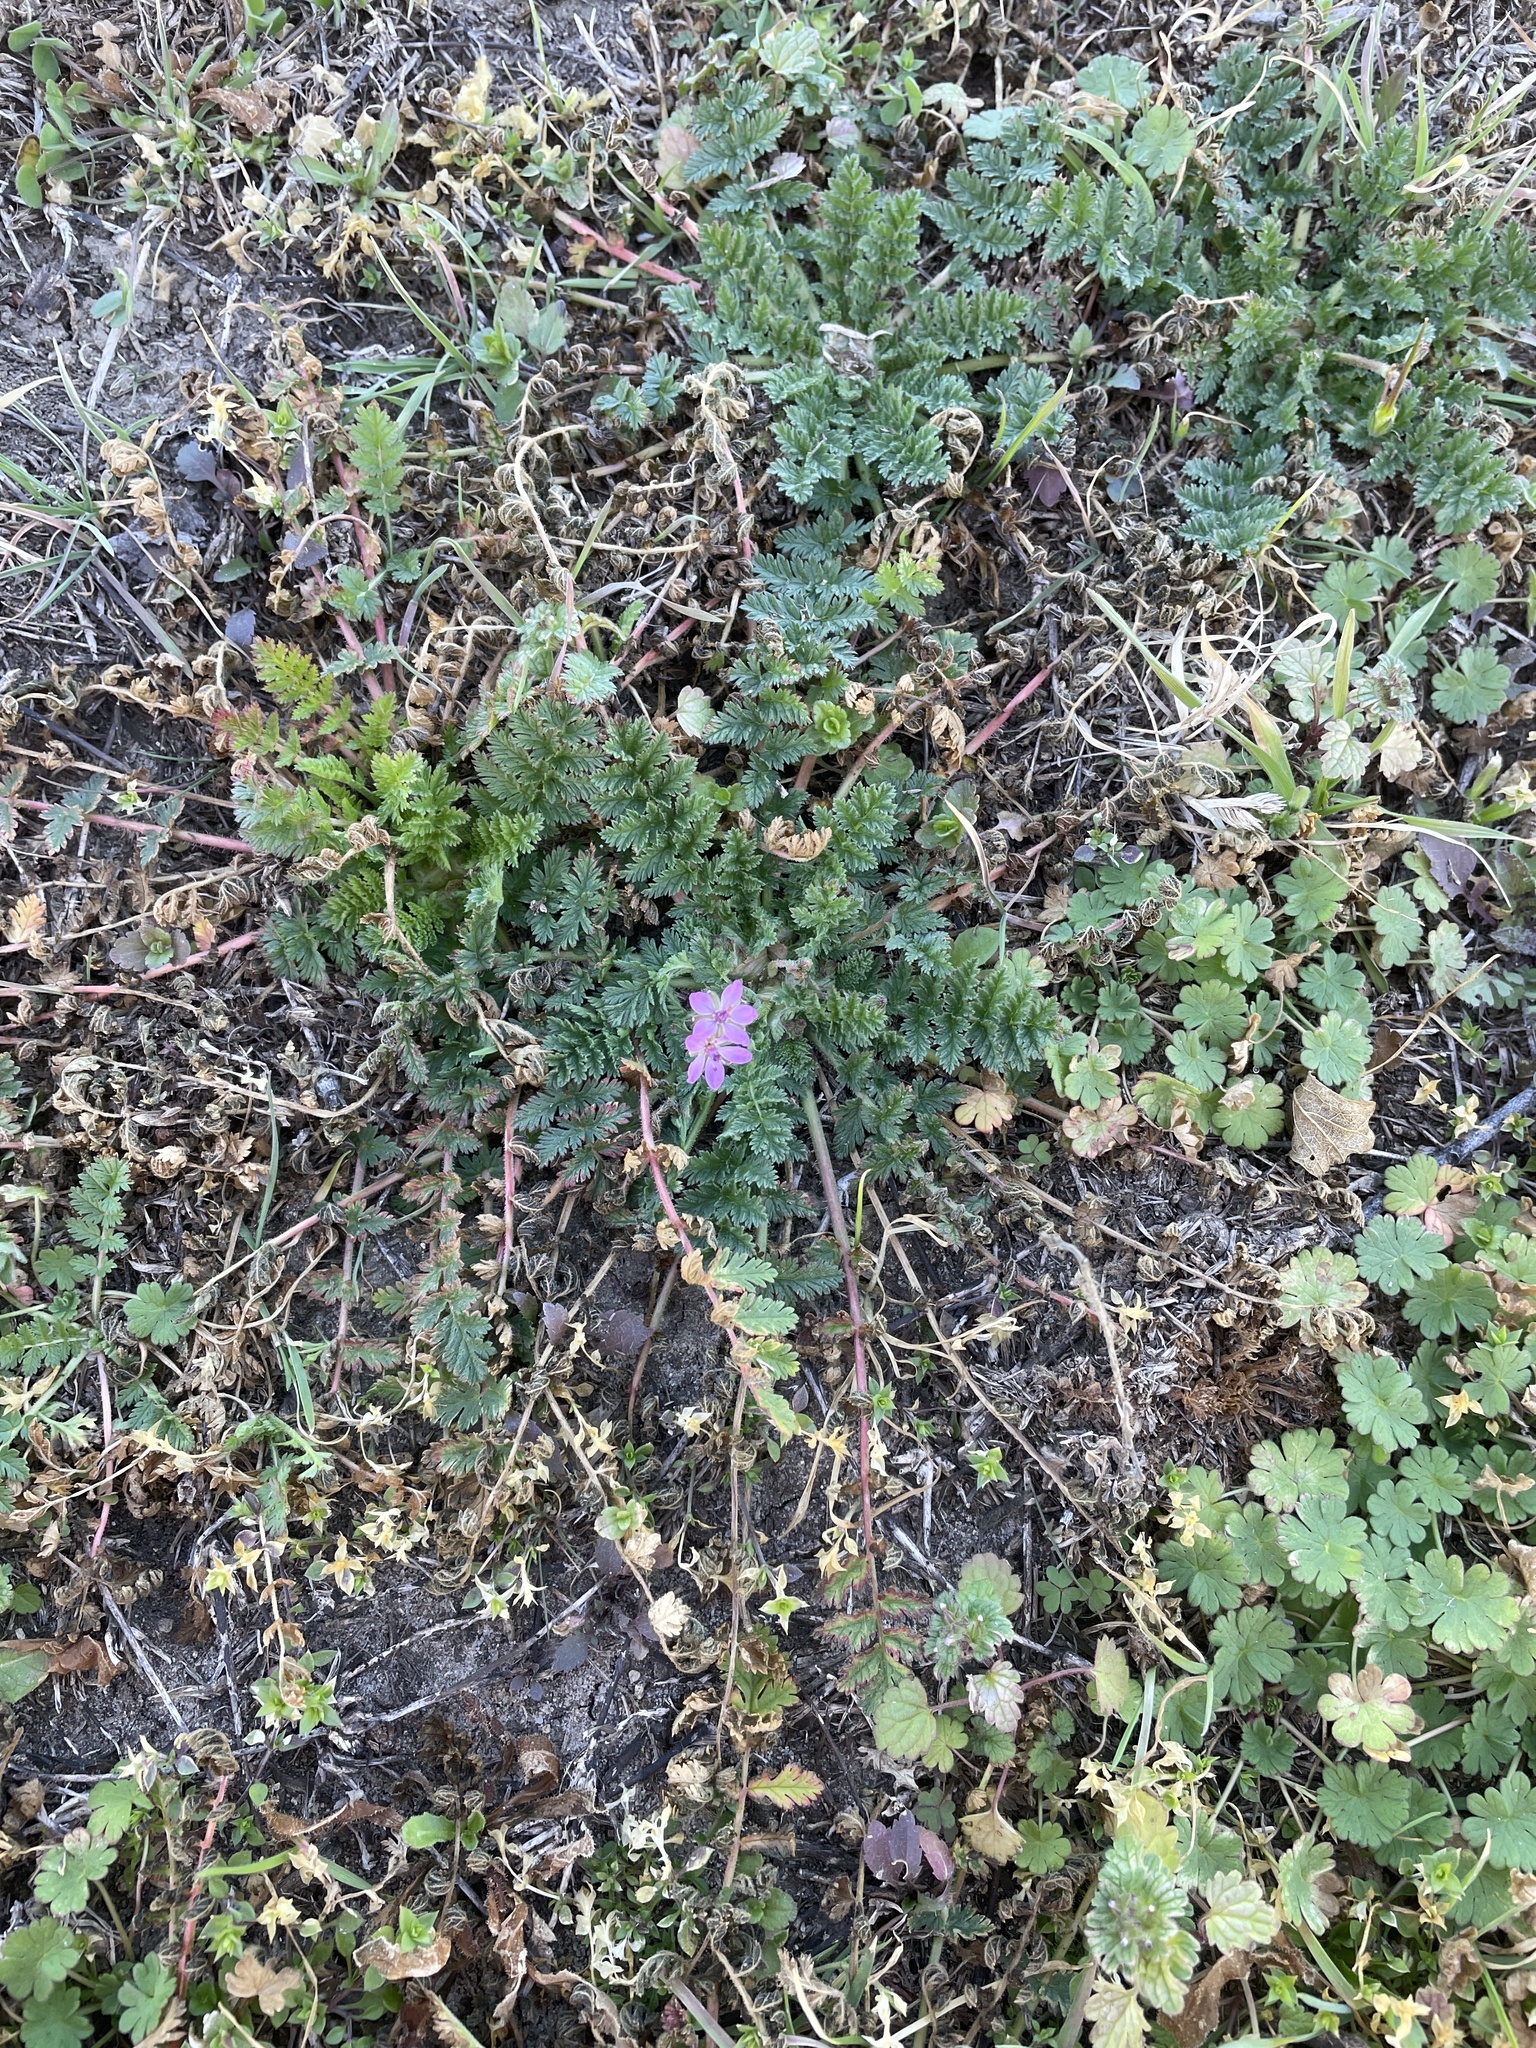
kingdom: Plantae
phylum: Tracheophyta
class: Magnoliopsida
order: Geraniales
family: Geraniaceae
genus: Erodium
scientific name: Erodium cicutarium
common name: Common stork's-bill
